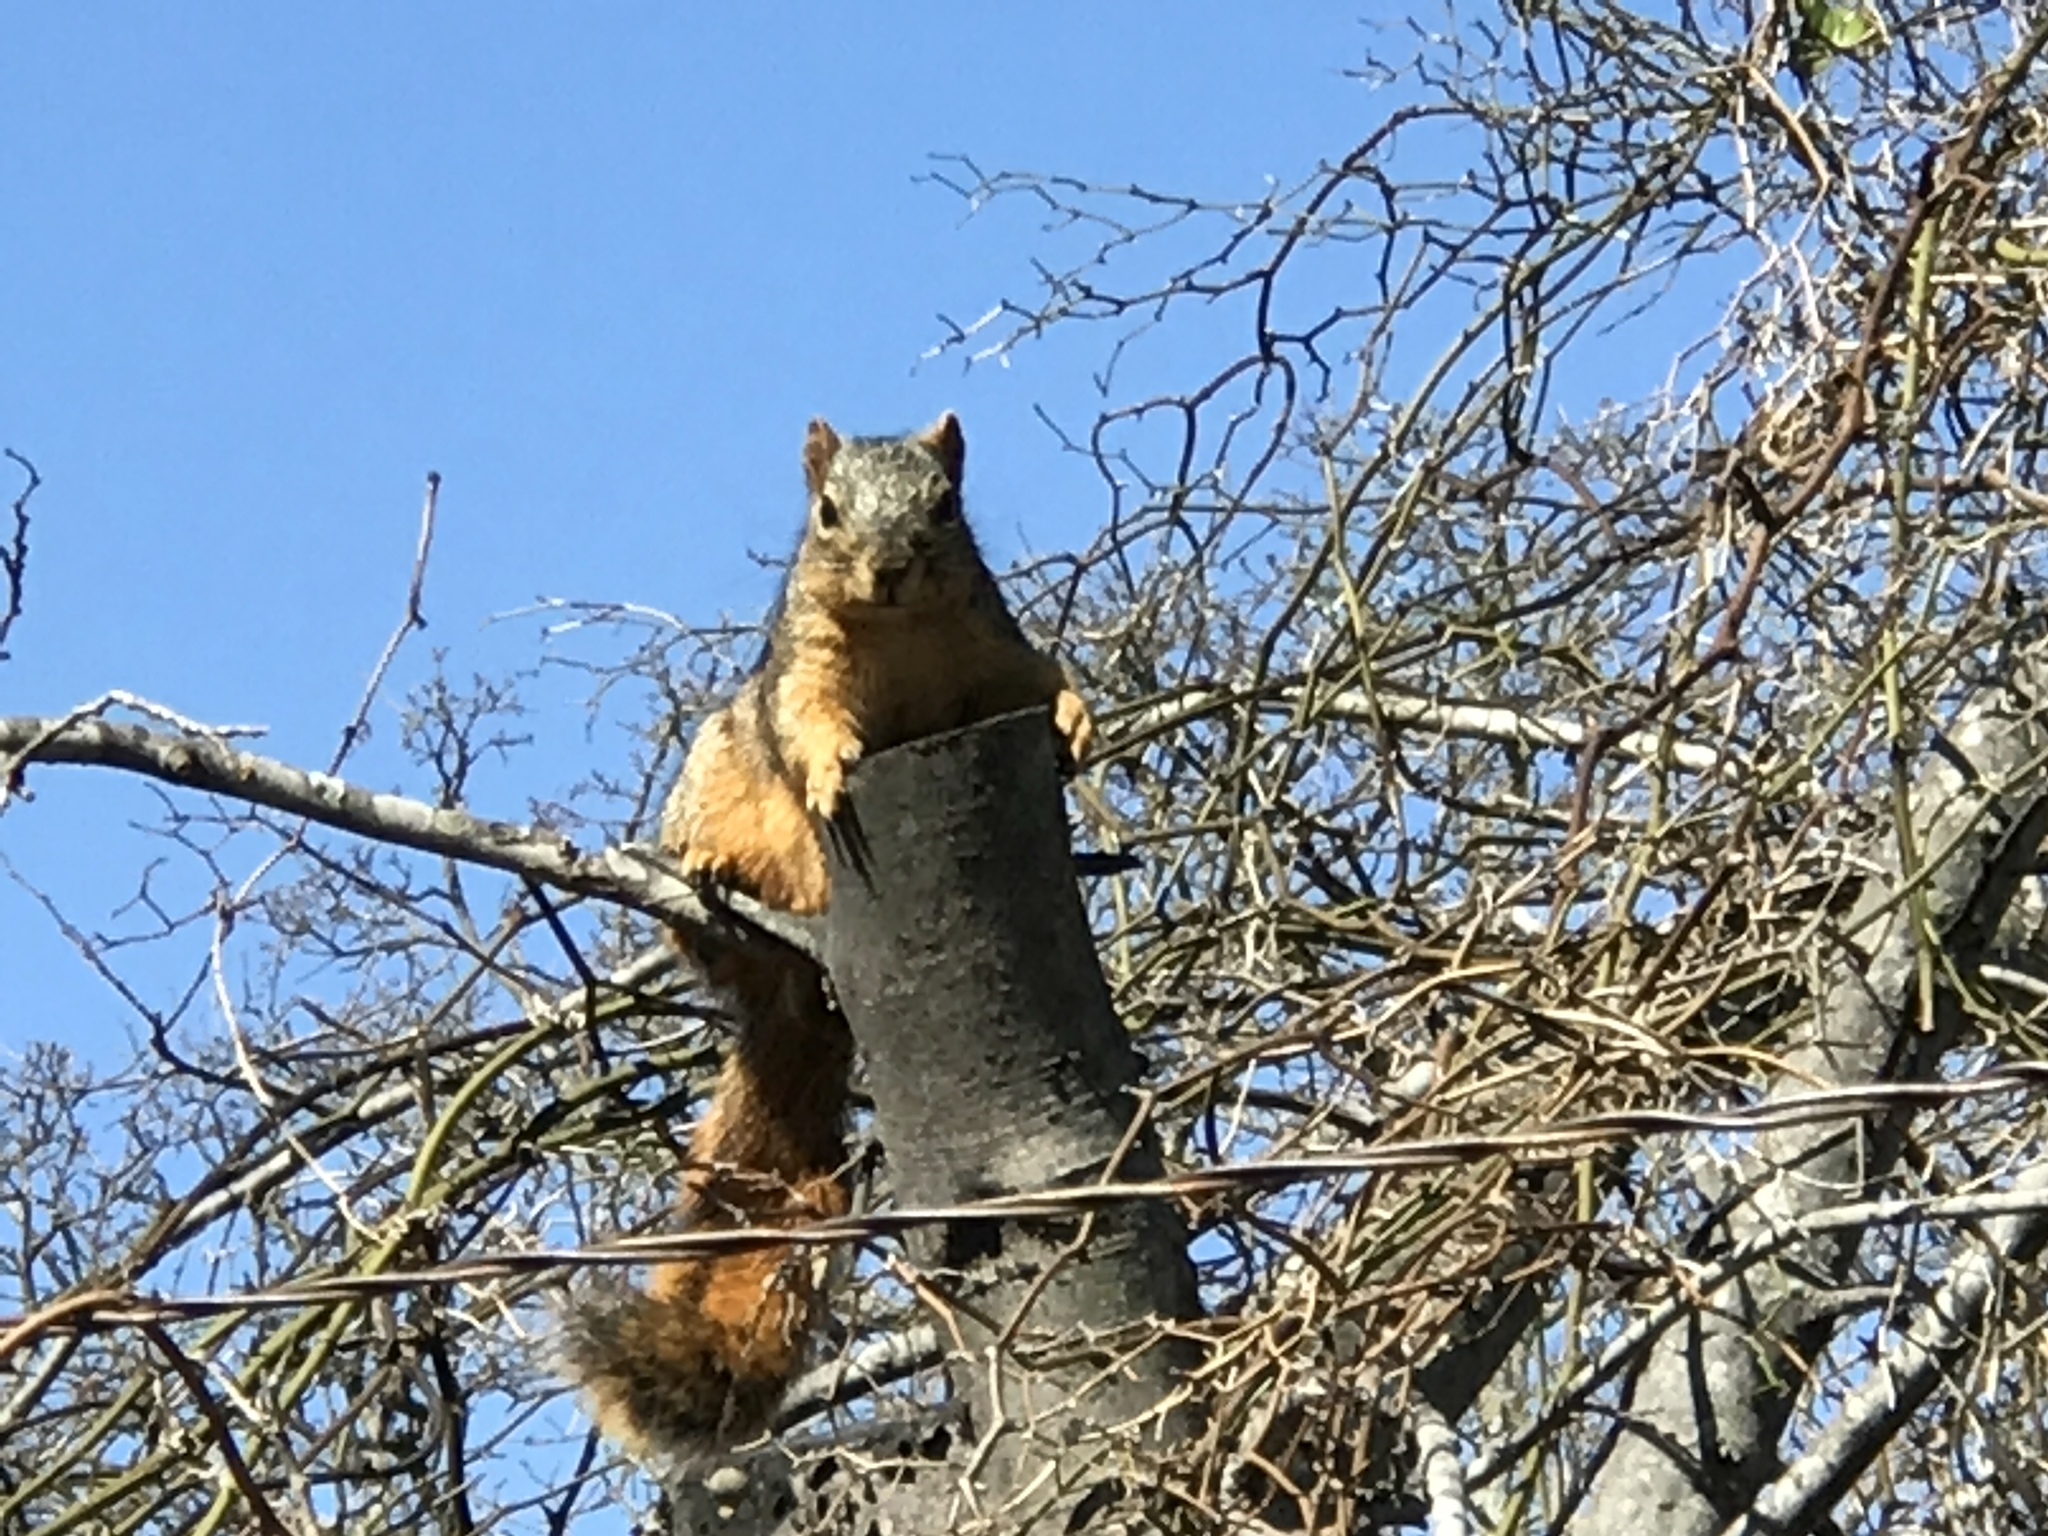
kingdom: Animalia
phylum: Chordata
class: Mammalia
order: Rodentia
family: Sciuridae
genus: Sciurus
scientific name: Sciurus niger
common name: Fox squirrel
